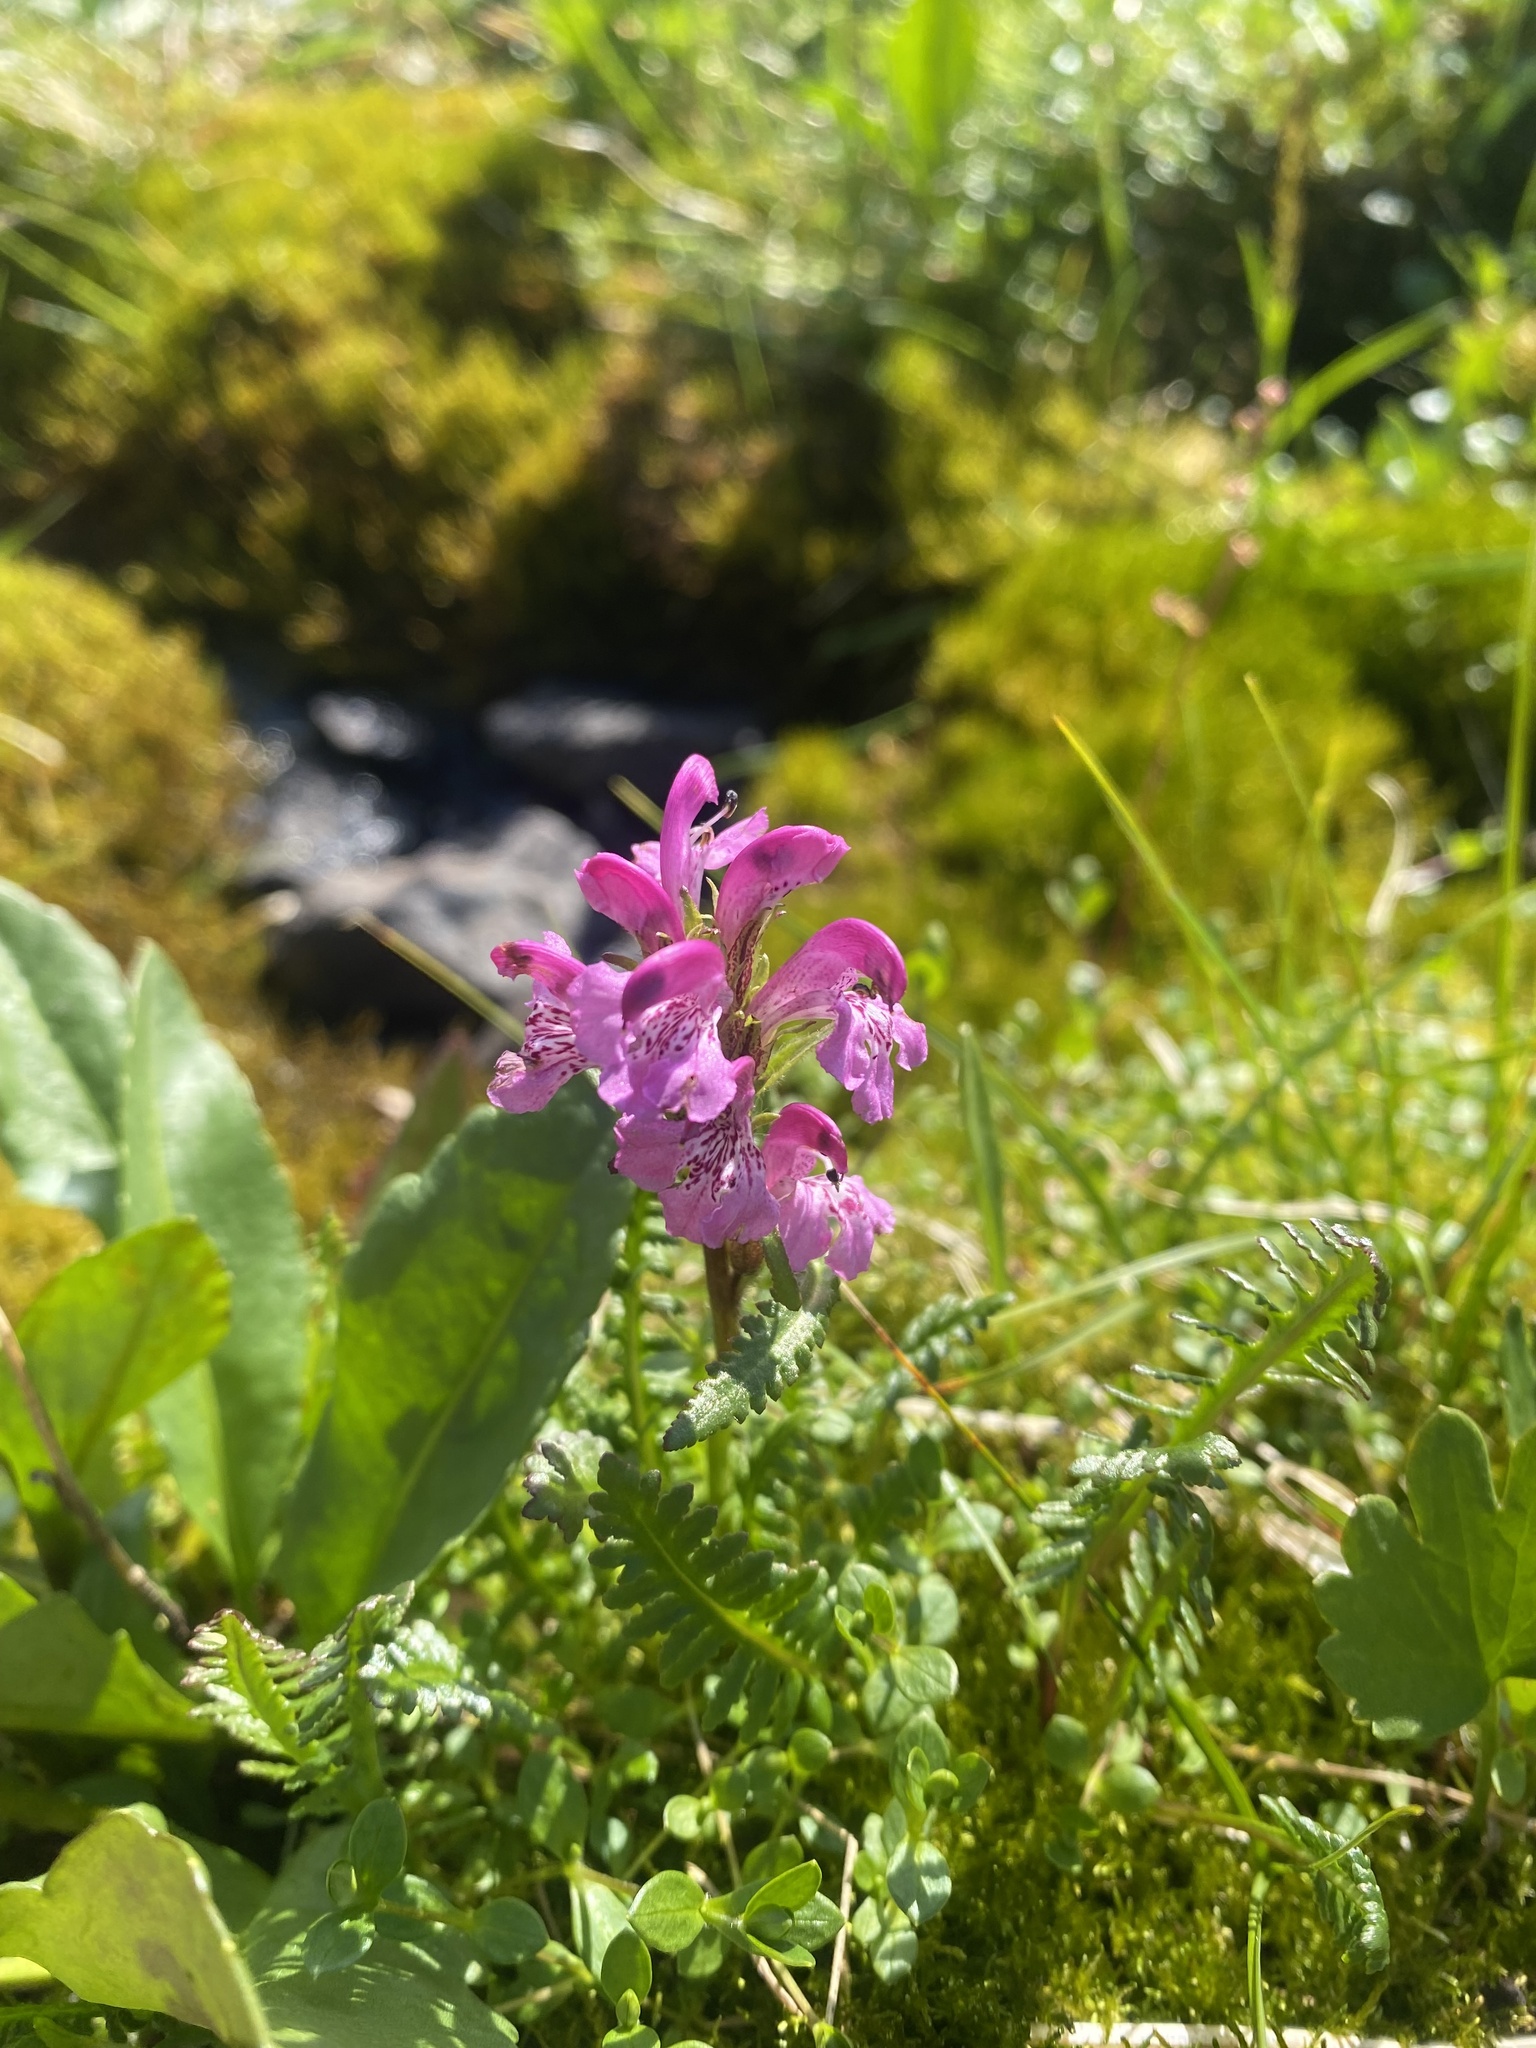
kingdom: Plantae
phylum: Tracheophyta
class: Magnoliopsida
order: Lamiales
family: Orobanchaceae
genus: Pedicularis
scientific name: Pedicularis interior
